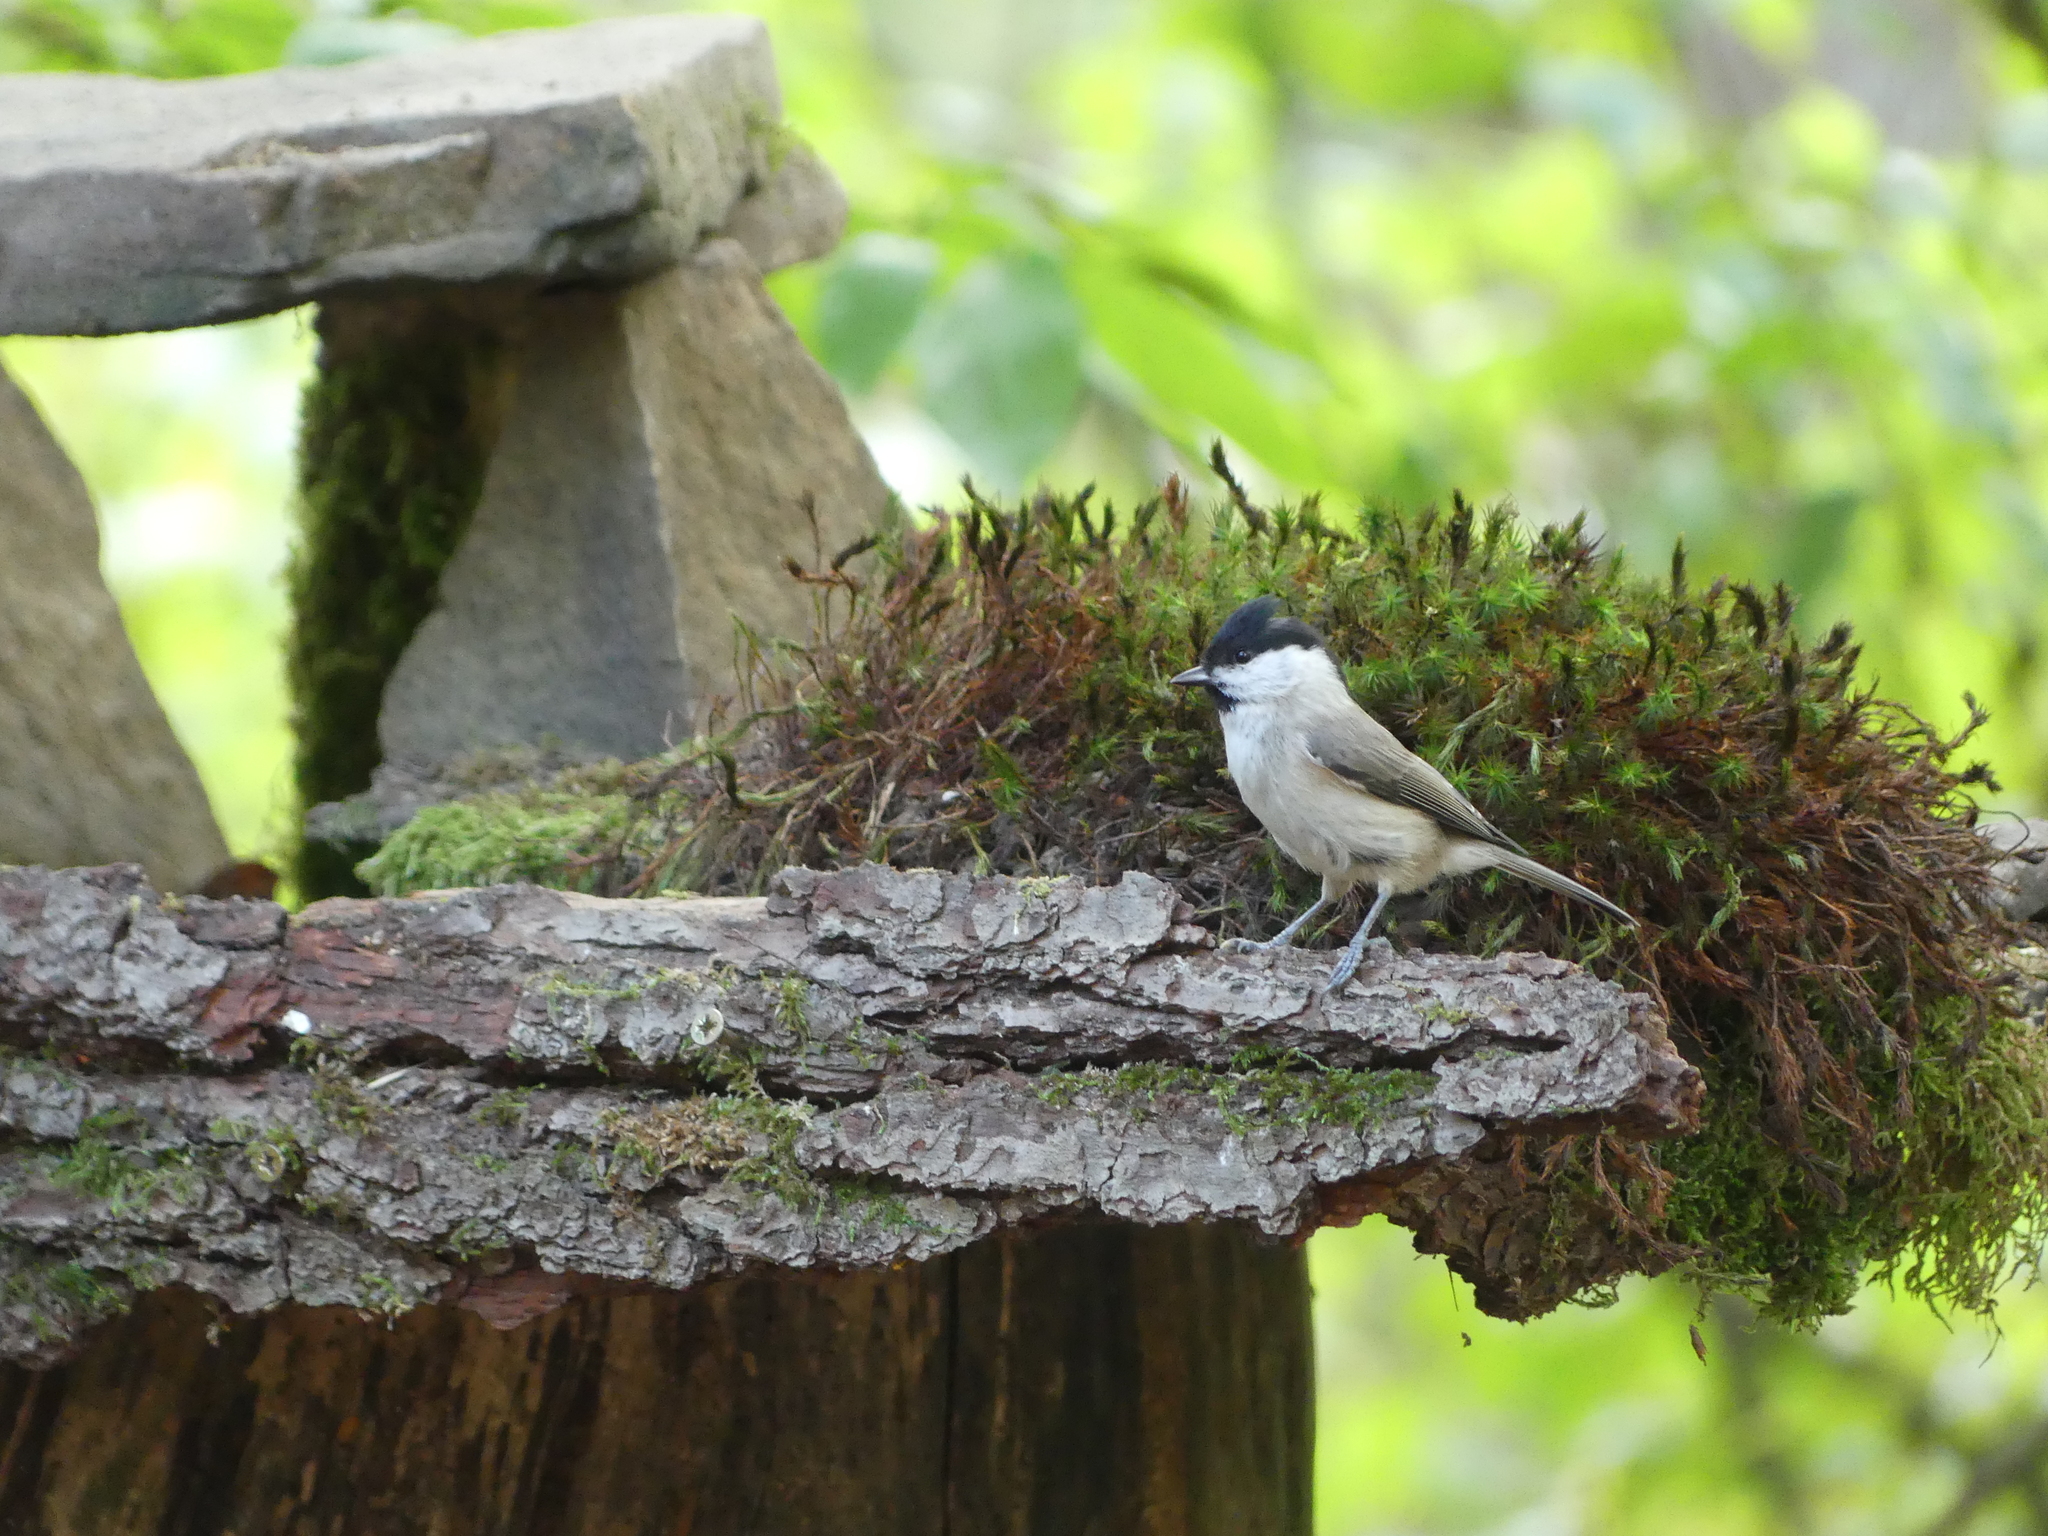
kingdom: Animalia
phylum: Chordata
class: Aves
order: Passeriformes
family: Paridae
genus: Poecile
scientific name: Poecile palustris
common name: Marsh tit
